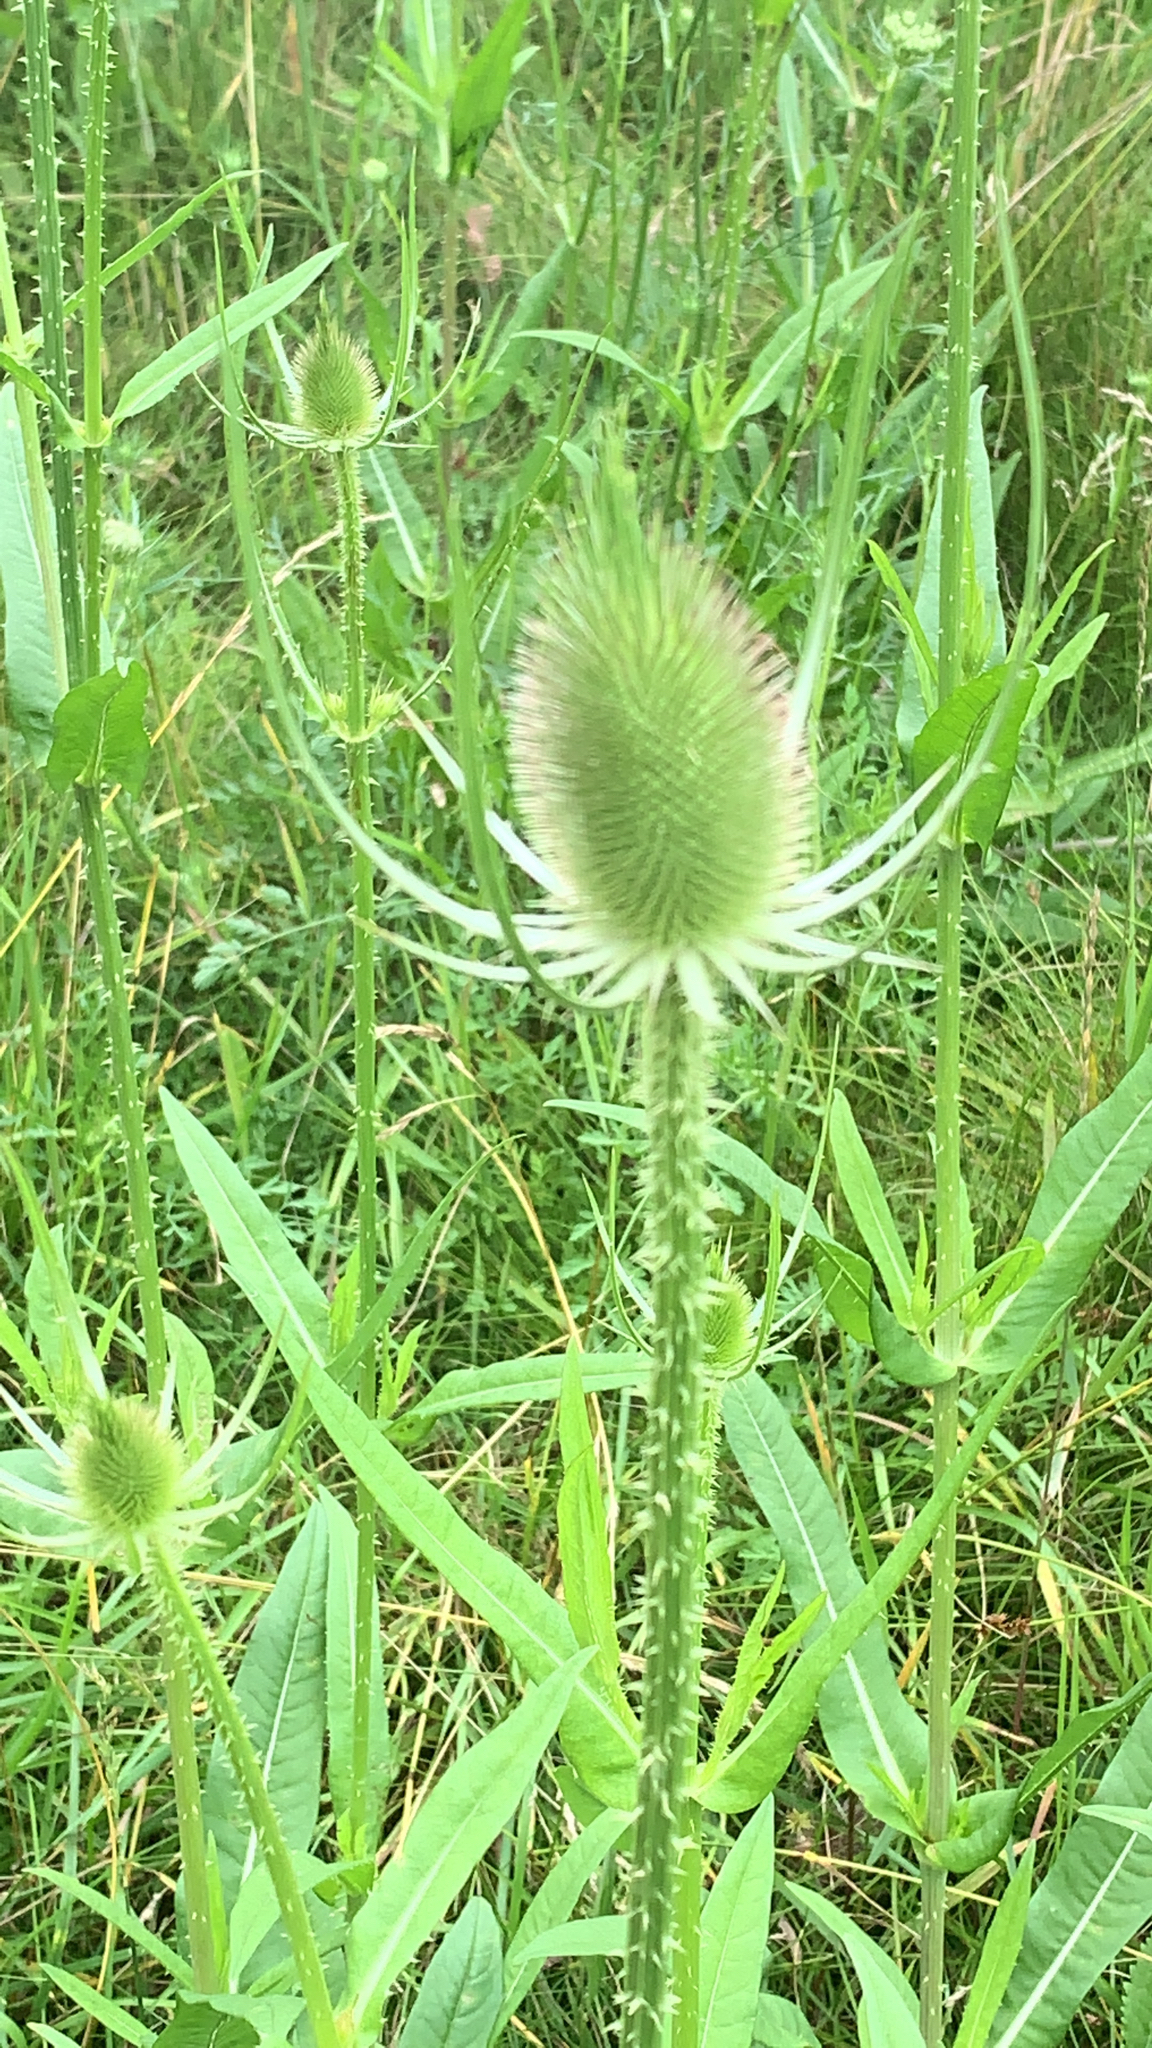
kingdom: Plantae
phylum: Tracheophyta
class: Magnoliopsida
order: Dipsacales
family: Caprifoliaceae
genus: Dipsacus
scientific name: Dipsacus fullonum
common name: Teasel
